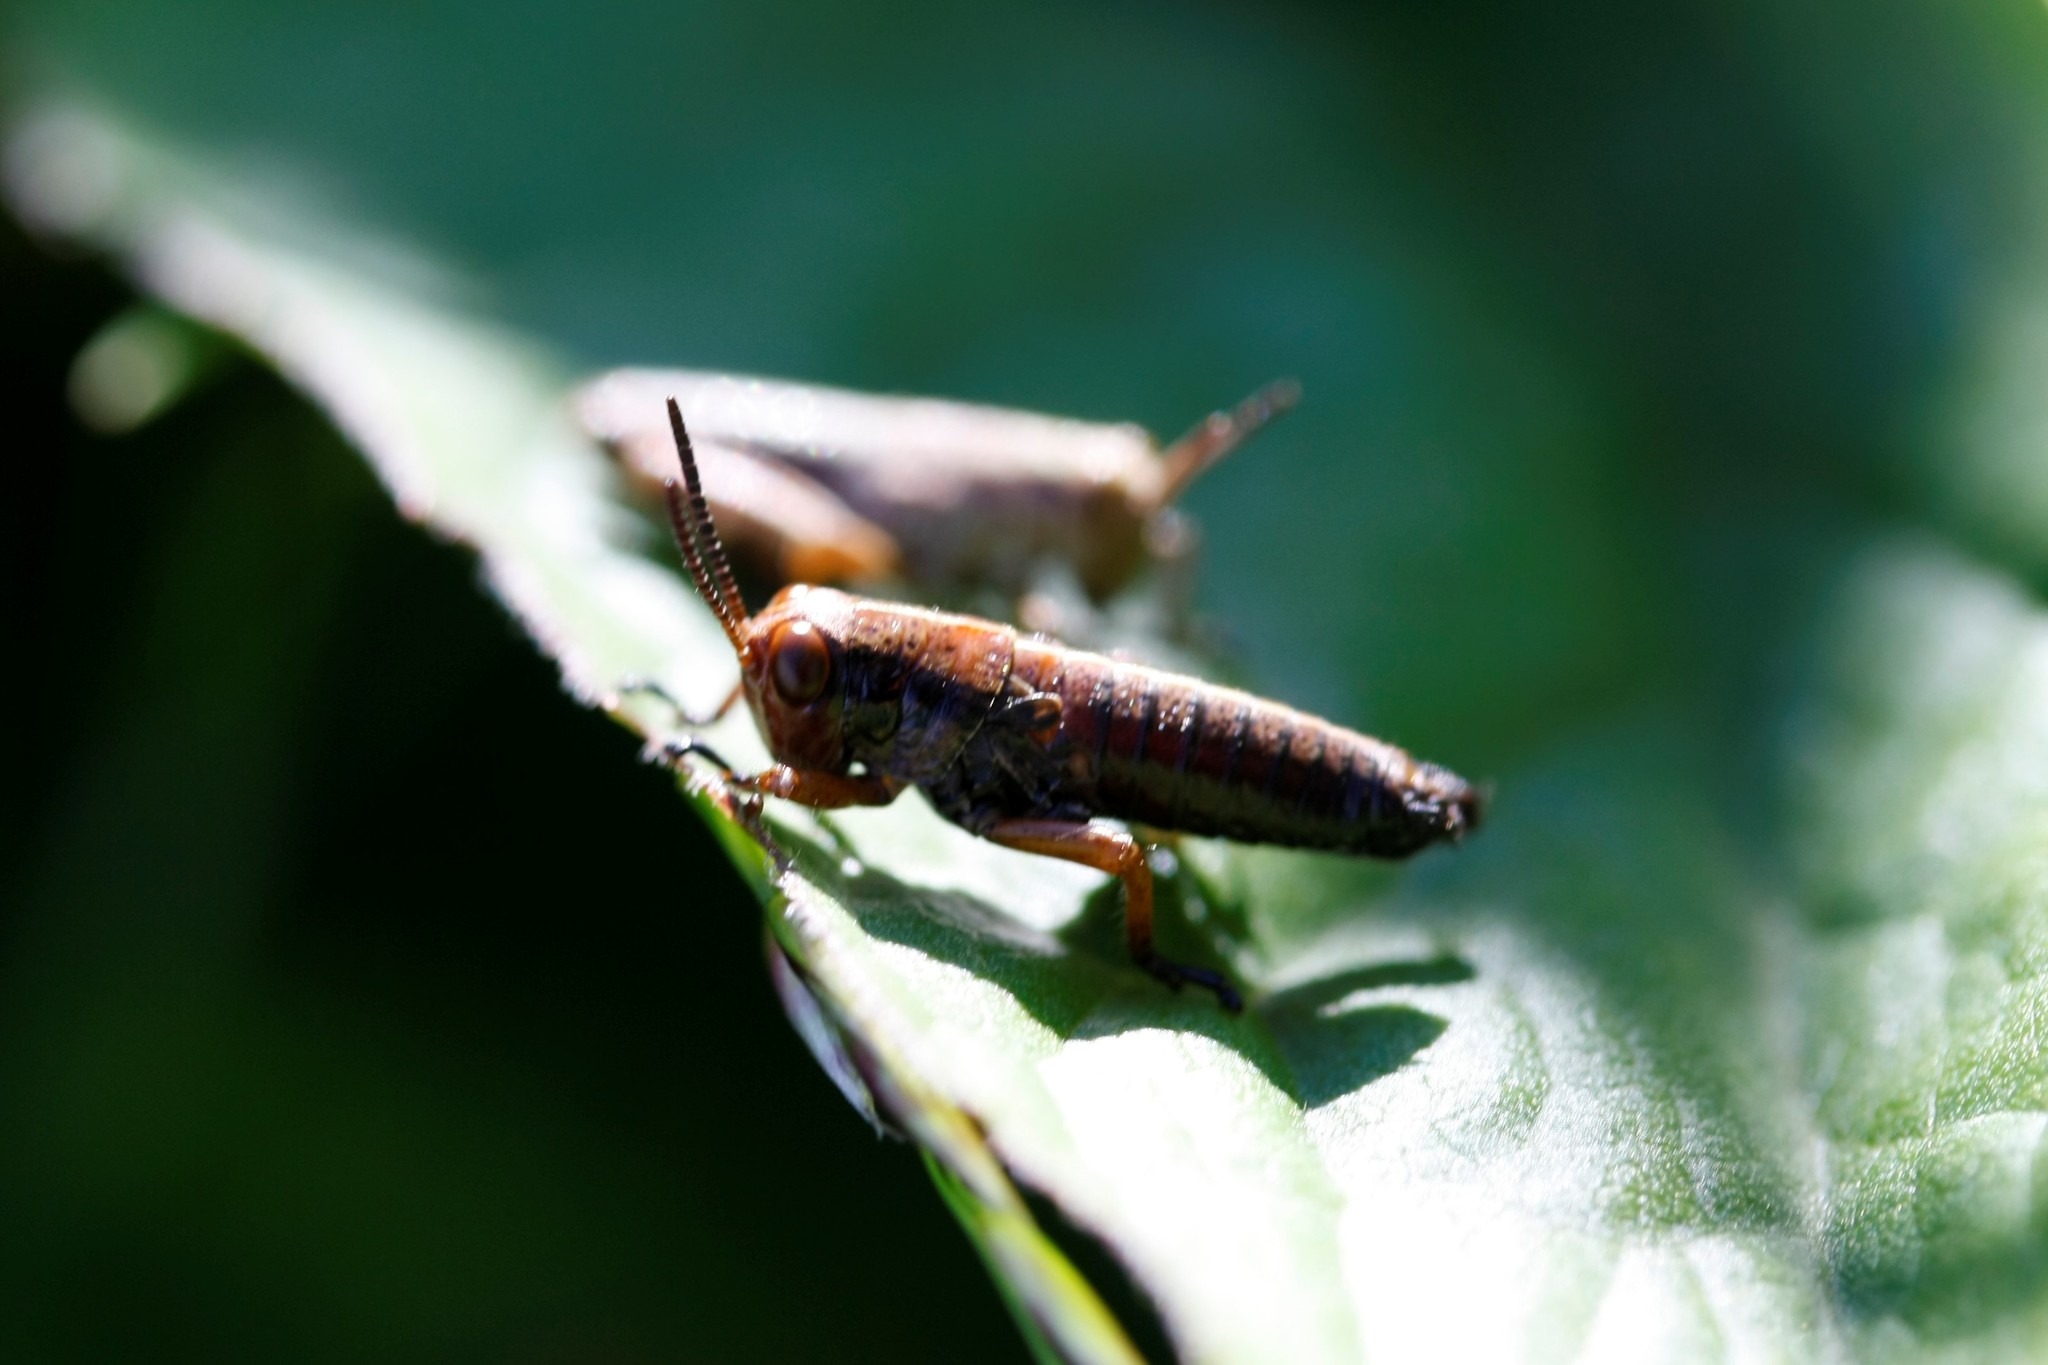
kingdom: Animalia
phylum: Arthropoda
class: Insecta
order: Orthoptera
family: Acrididae
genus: Miramella
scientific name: Miramella alpina
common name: Green mountain grasshopper
